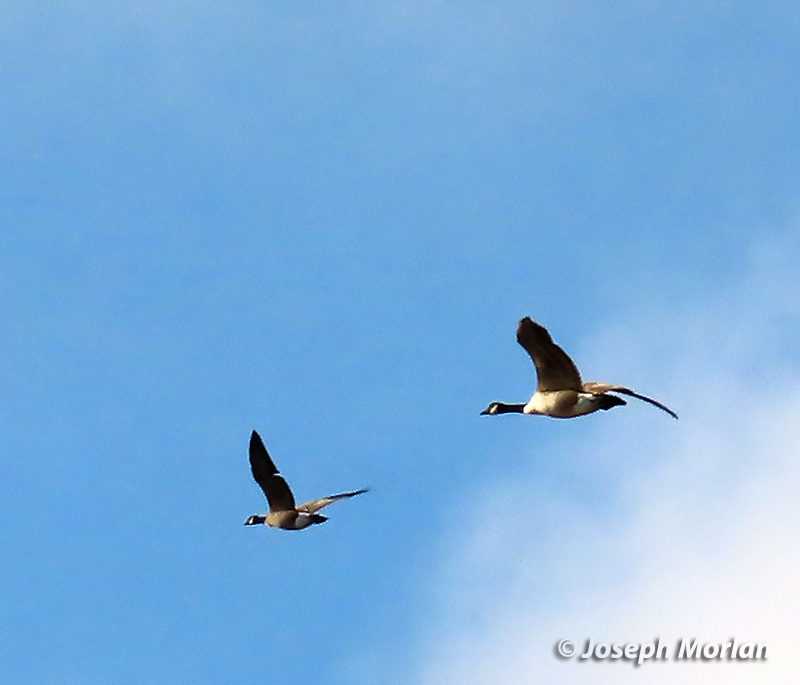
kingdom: Animalia
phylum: Chordata
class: Aves
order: Anseriformes
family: Anatidae
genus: Branta
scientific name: Branta hutchinsii
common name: Cackling goose
